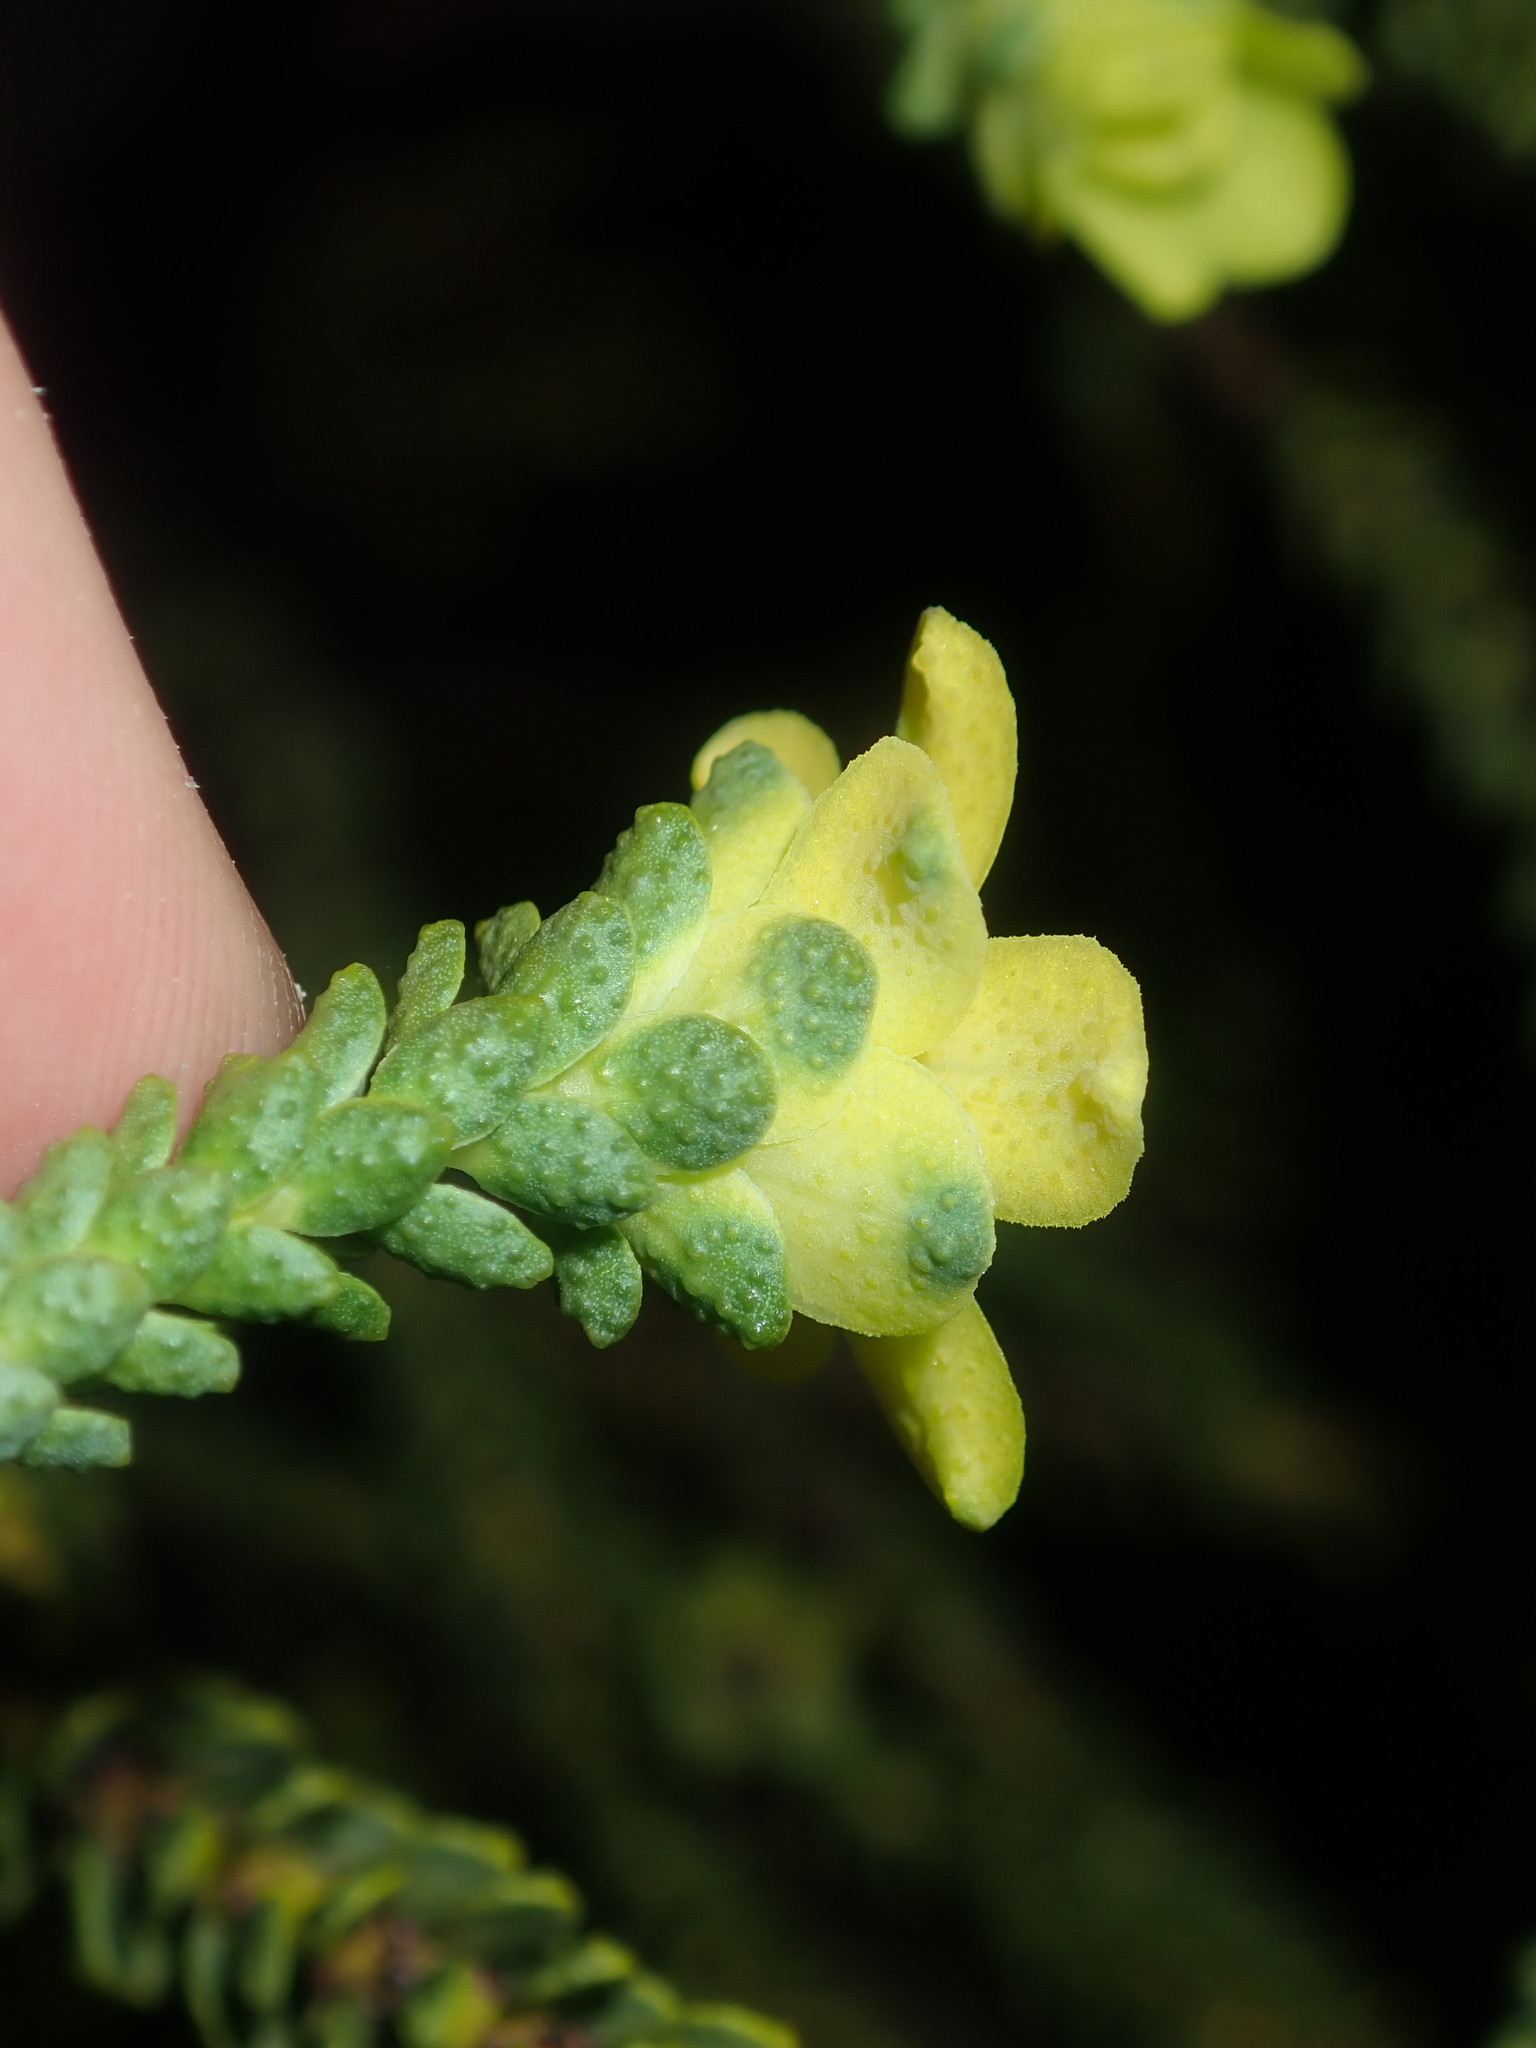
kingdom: Plantae
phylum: Tracheophyta
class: Magnoliopsida
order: Sapindales
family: Rutaceae
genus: Geleznowia
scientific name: Geleznowia verrucosa
